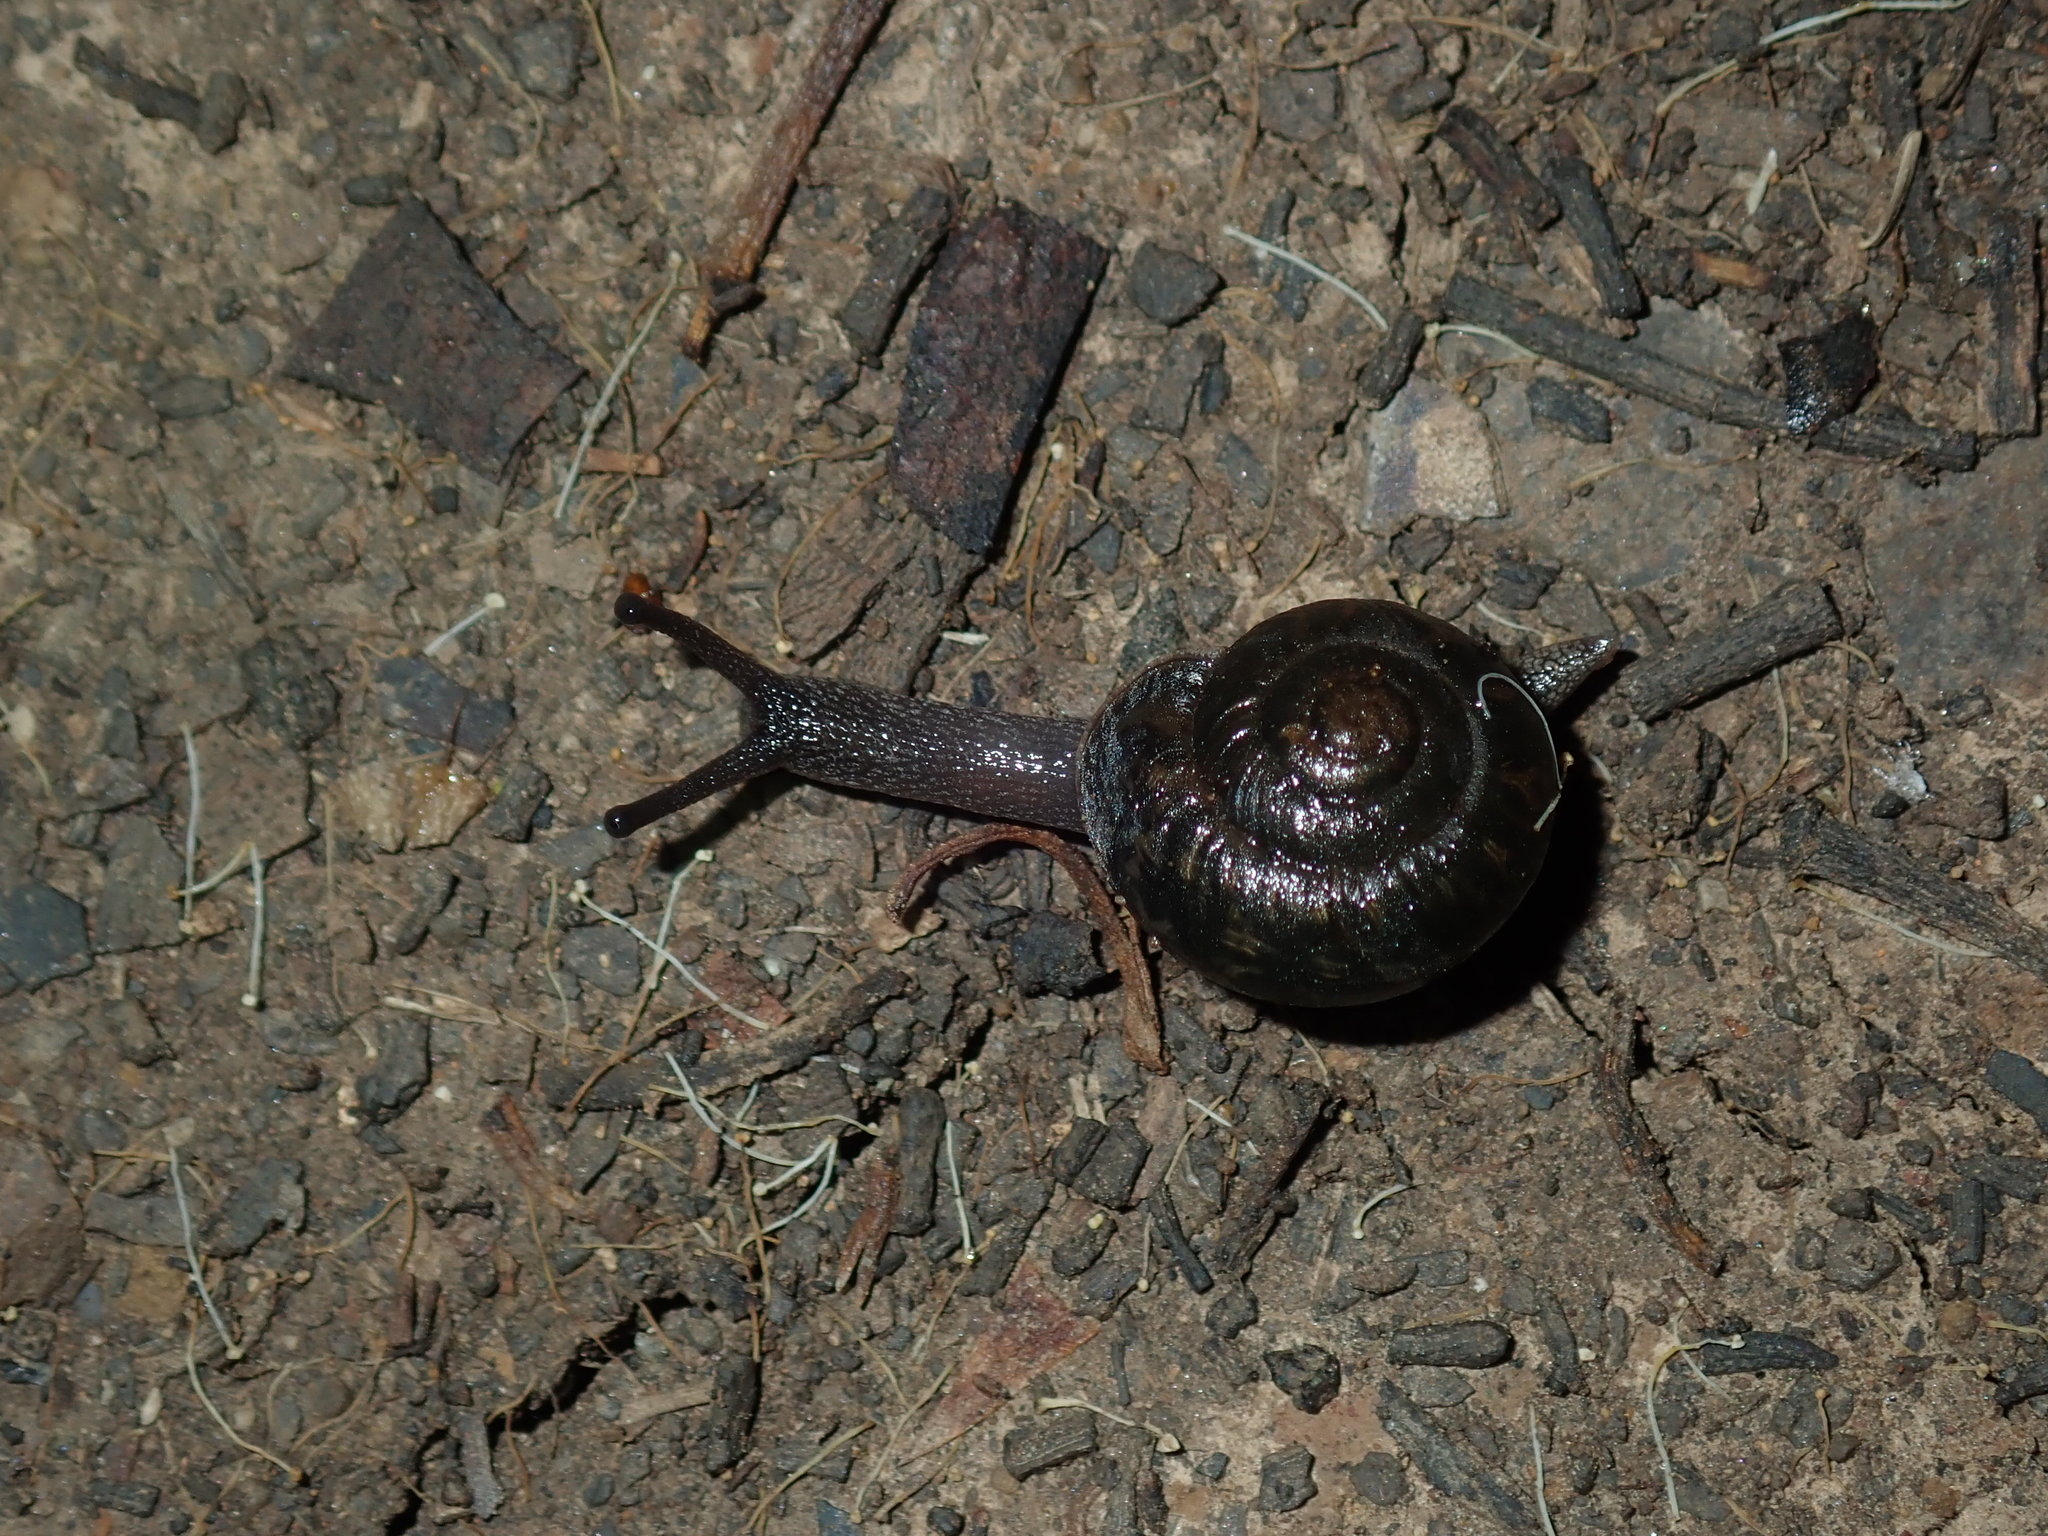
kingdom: Animalia
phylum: Mollusca
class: Gastropoda
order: Stylommatophora
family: Camaenidae
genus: Sauroconcha
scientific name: Sauroconcha sheai
